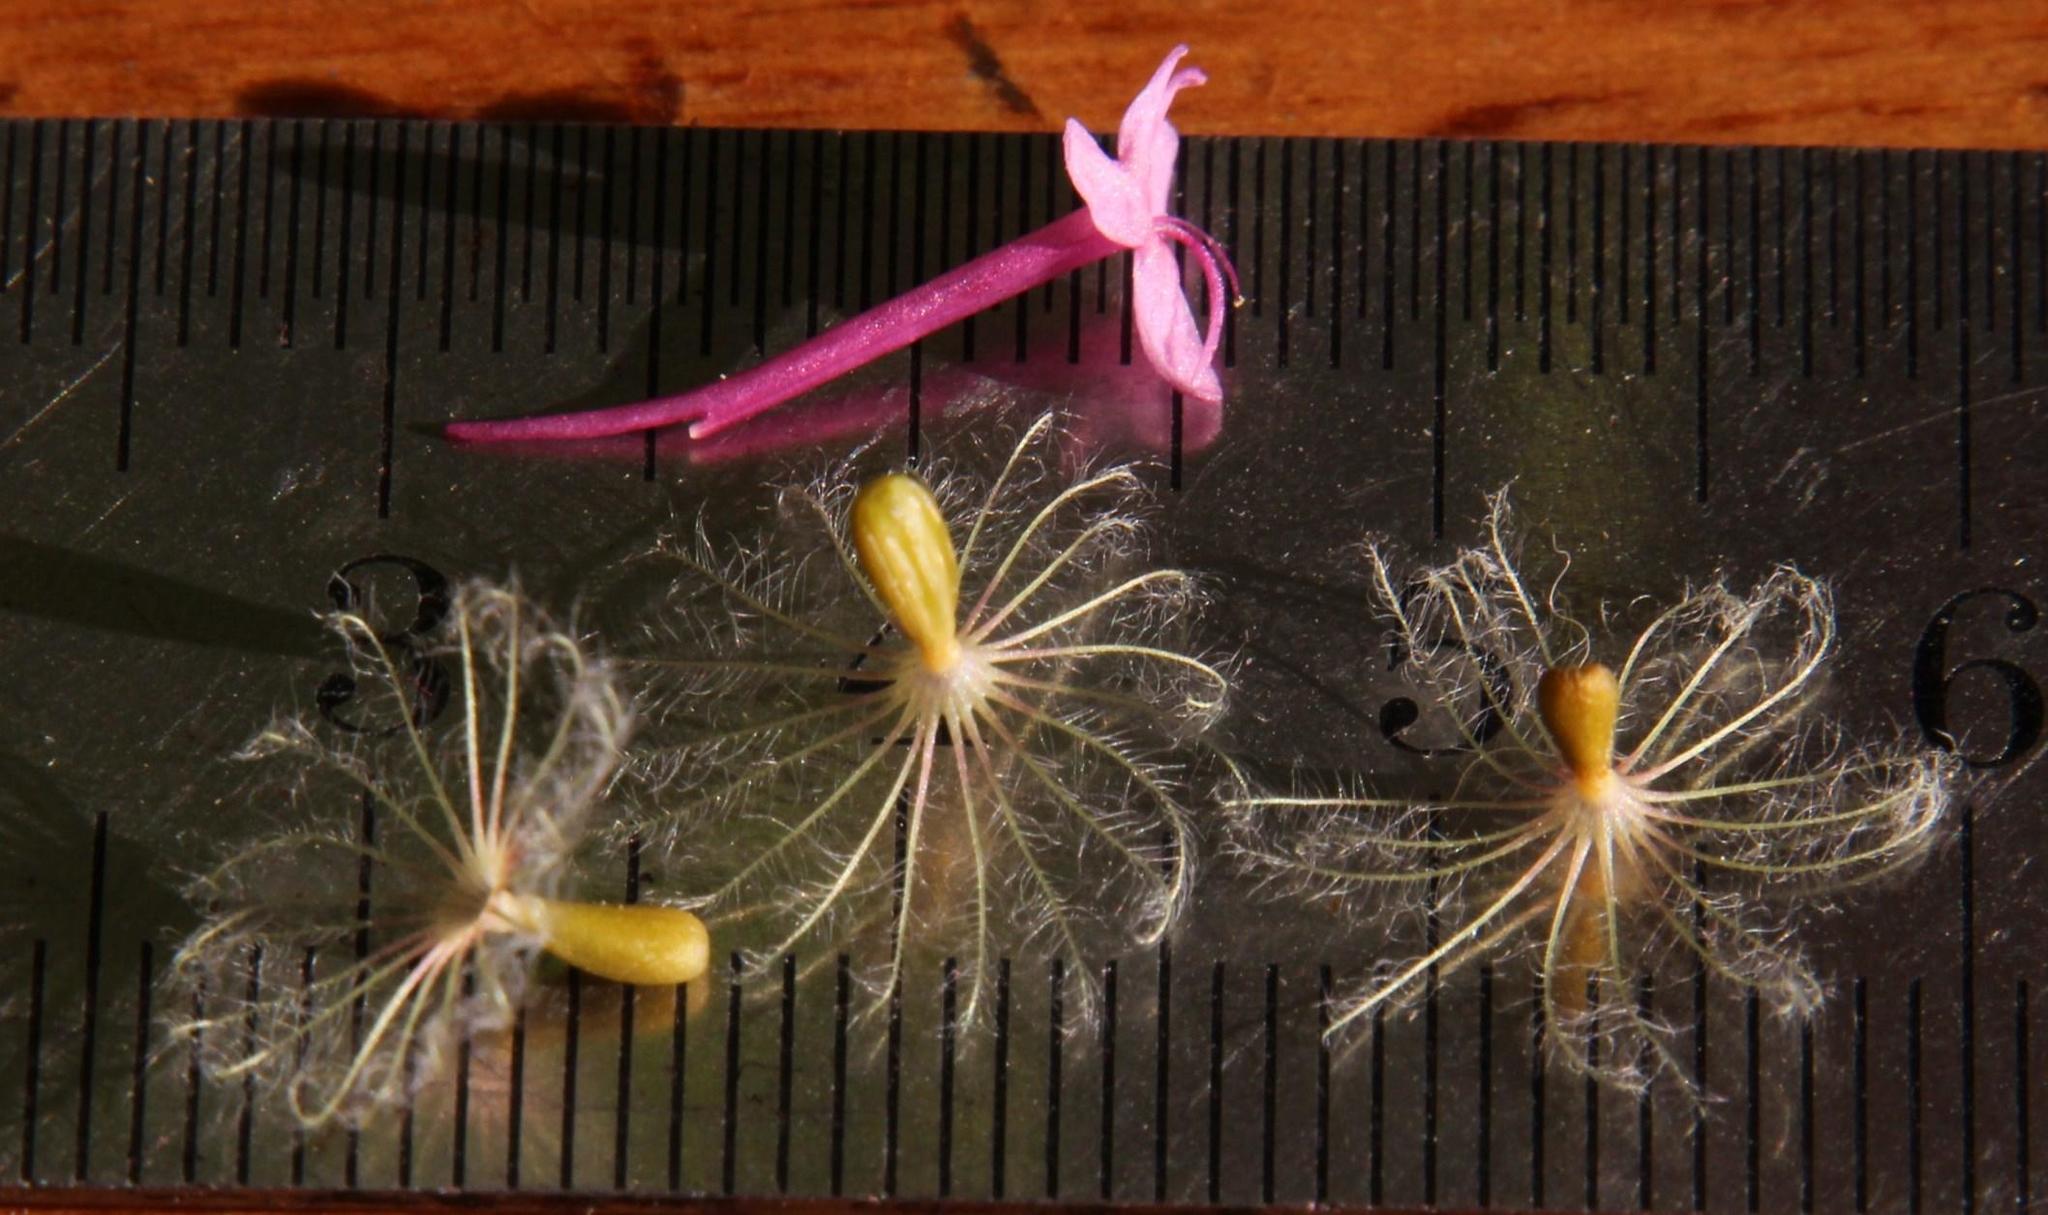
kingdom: Plantae
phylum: Tracheophyta
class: Magnoliopsida
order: Dipsacales
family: Caprifoliaceae
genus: Centranthus
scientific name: Centranthus ruber
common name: Red valerian
